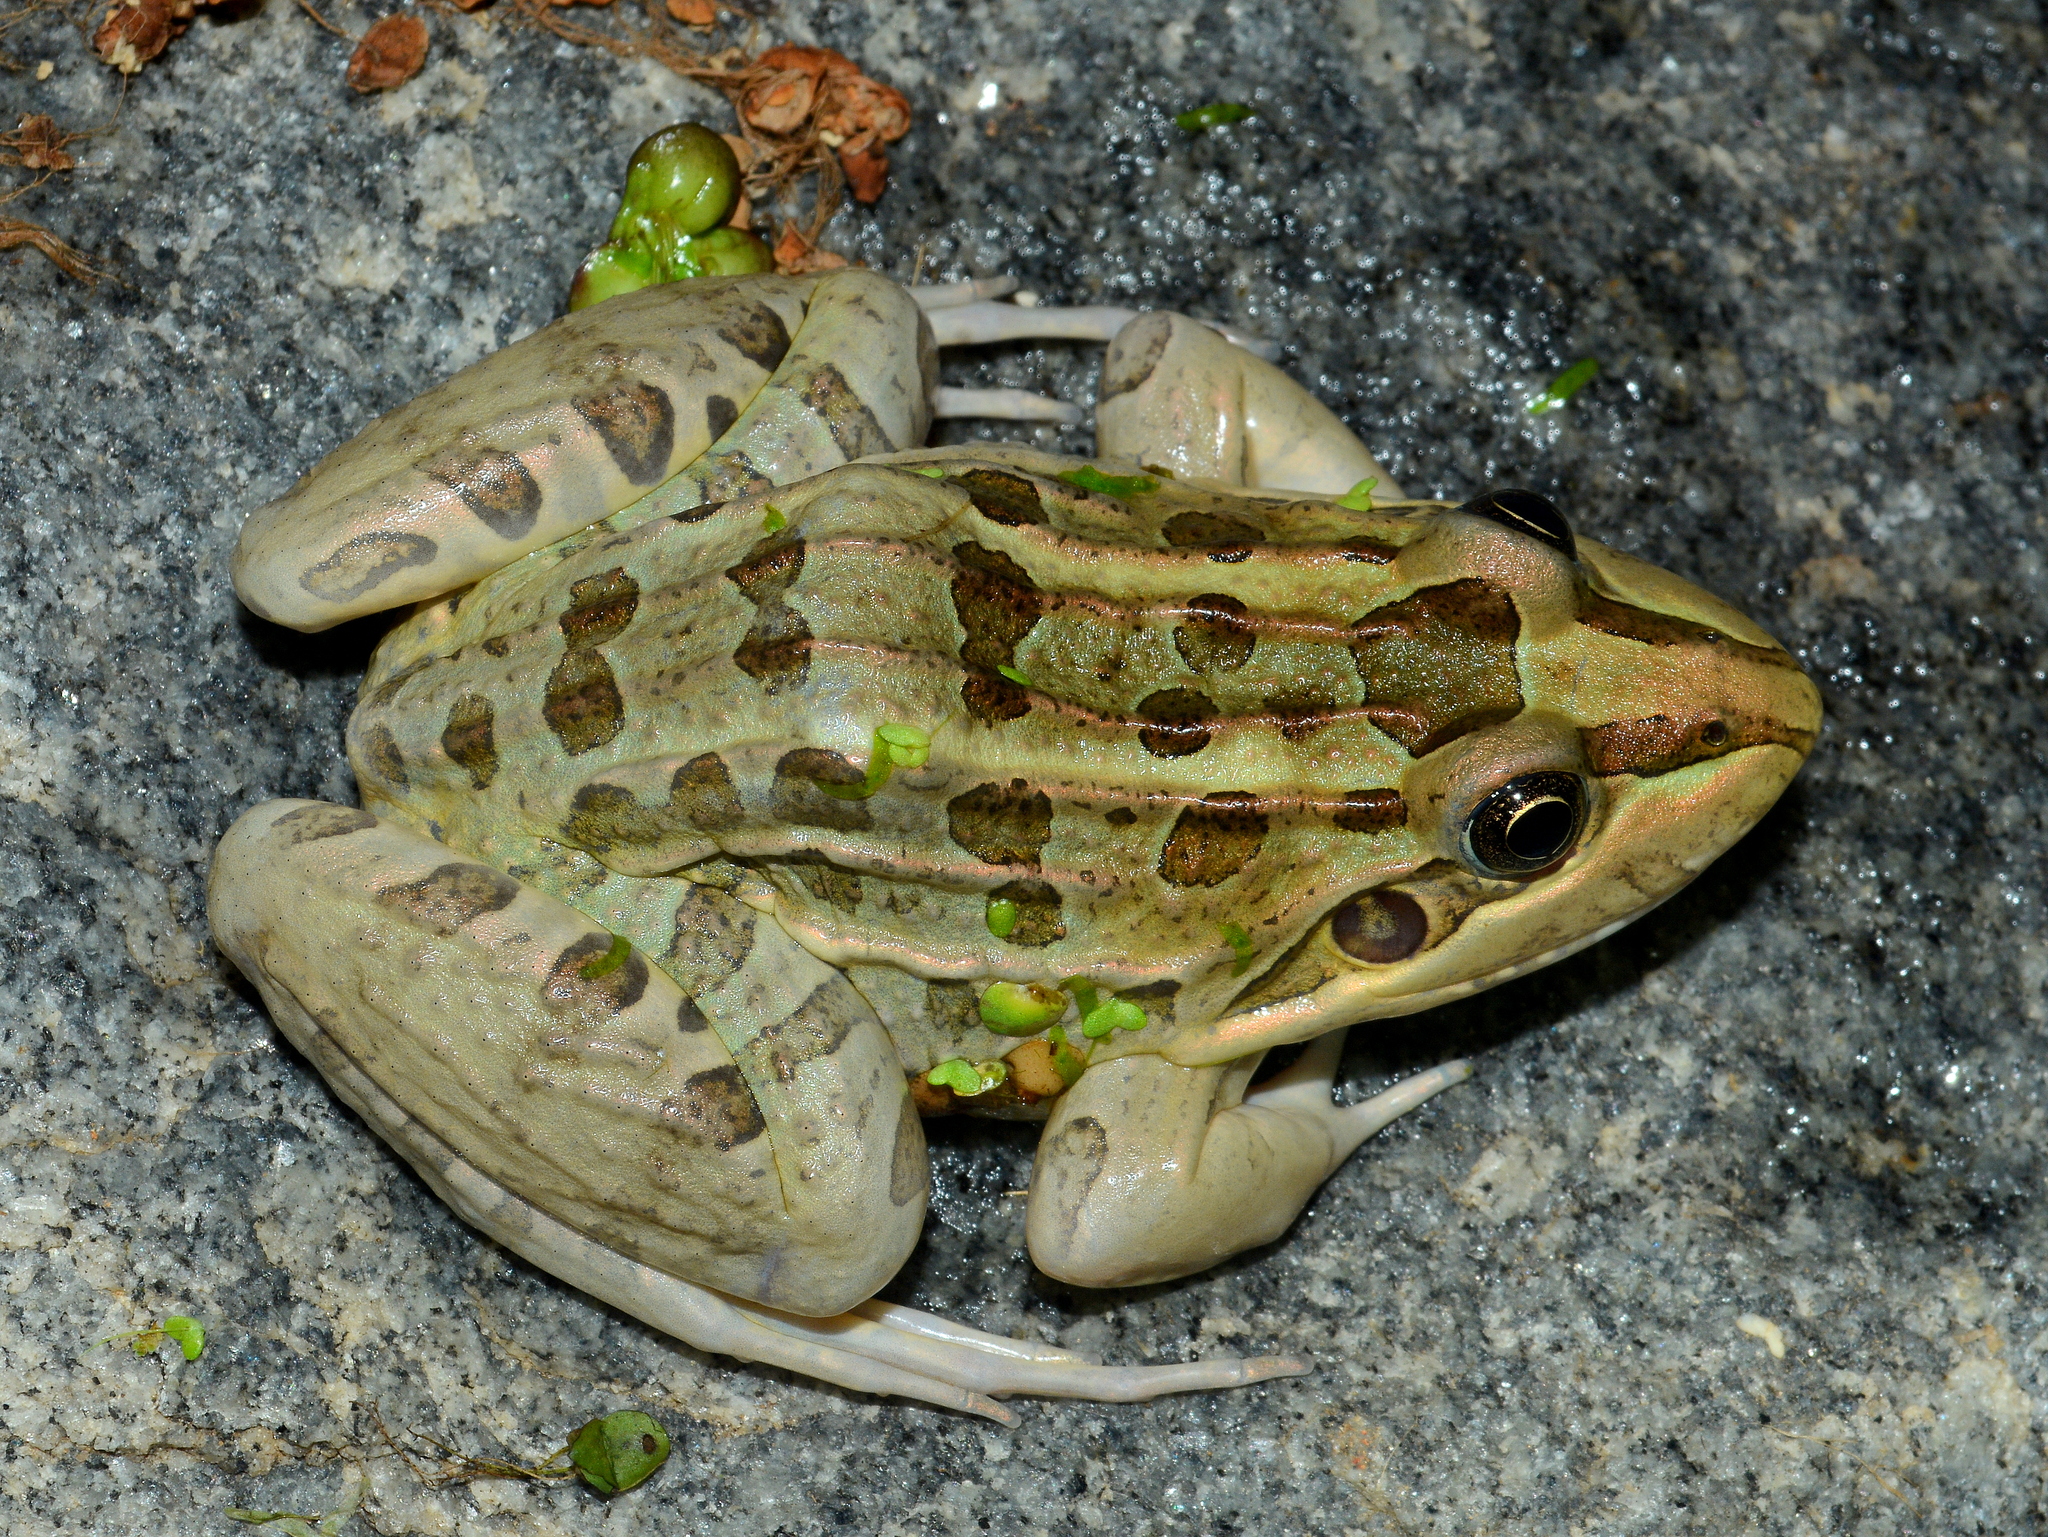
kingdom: Animalia
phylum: Chordata
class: Amphibia
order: Anura
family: Leptodactylidae
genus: Leptodactylus
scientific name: Leptodactylus luctator
